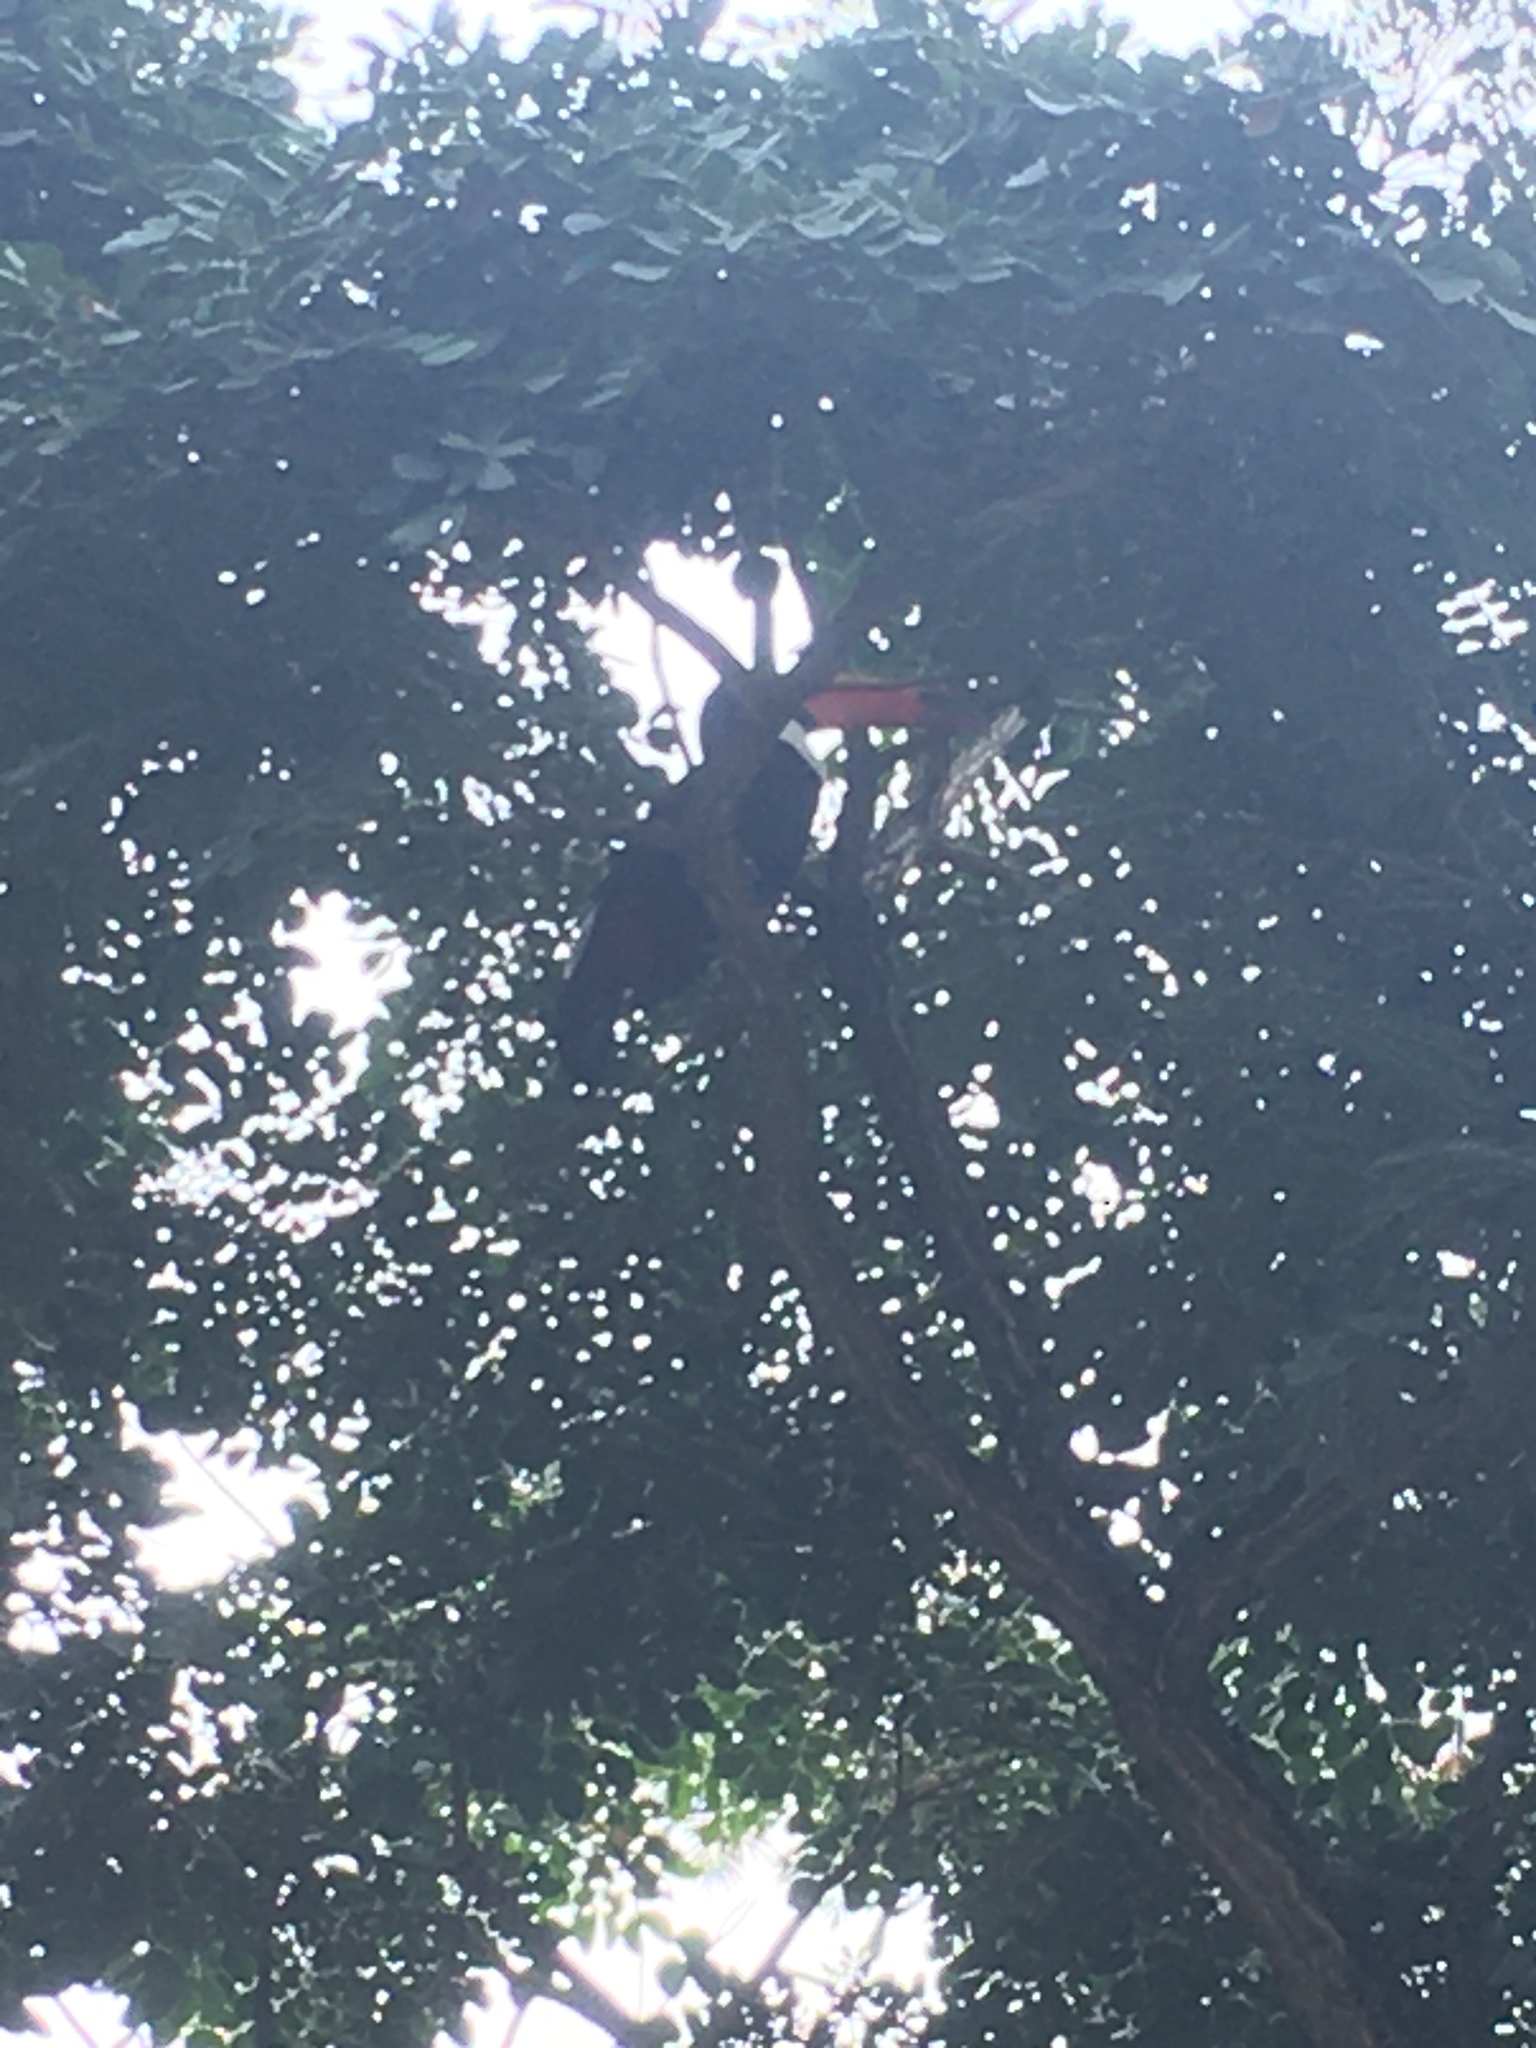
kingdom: Animalia
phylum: Chordata
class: Aves
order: Piciformes
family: Ramphastidae
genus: Ramphastos
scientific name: Ramphastos toco
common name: Toco toucan
